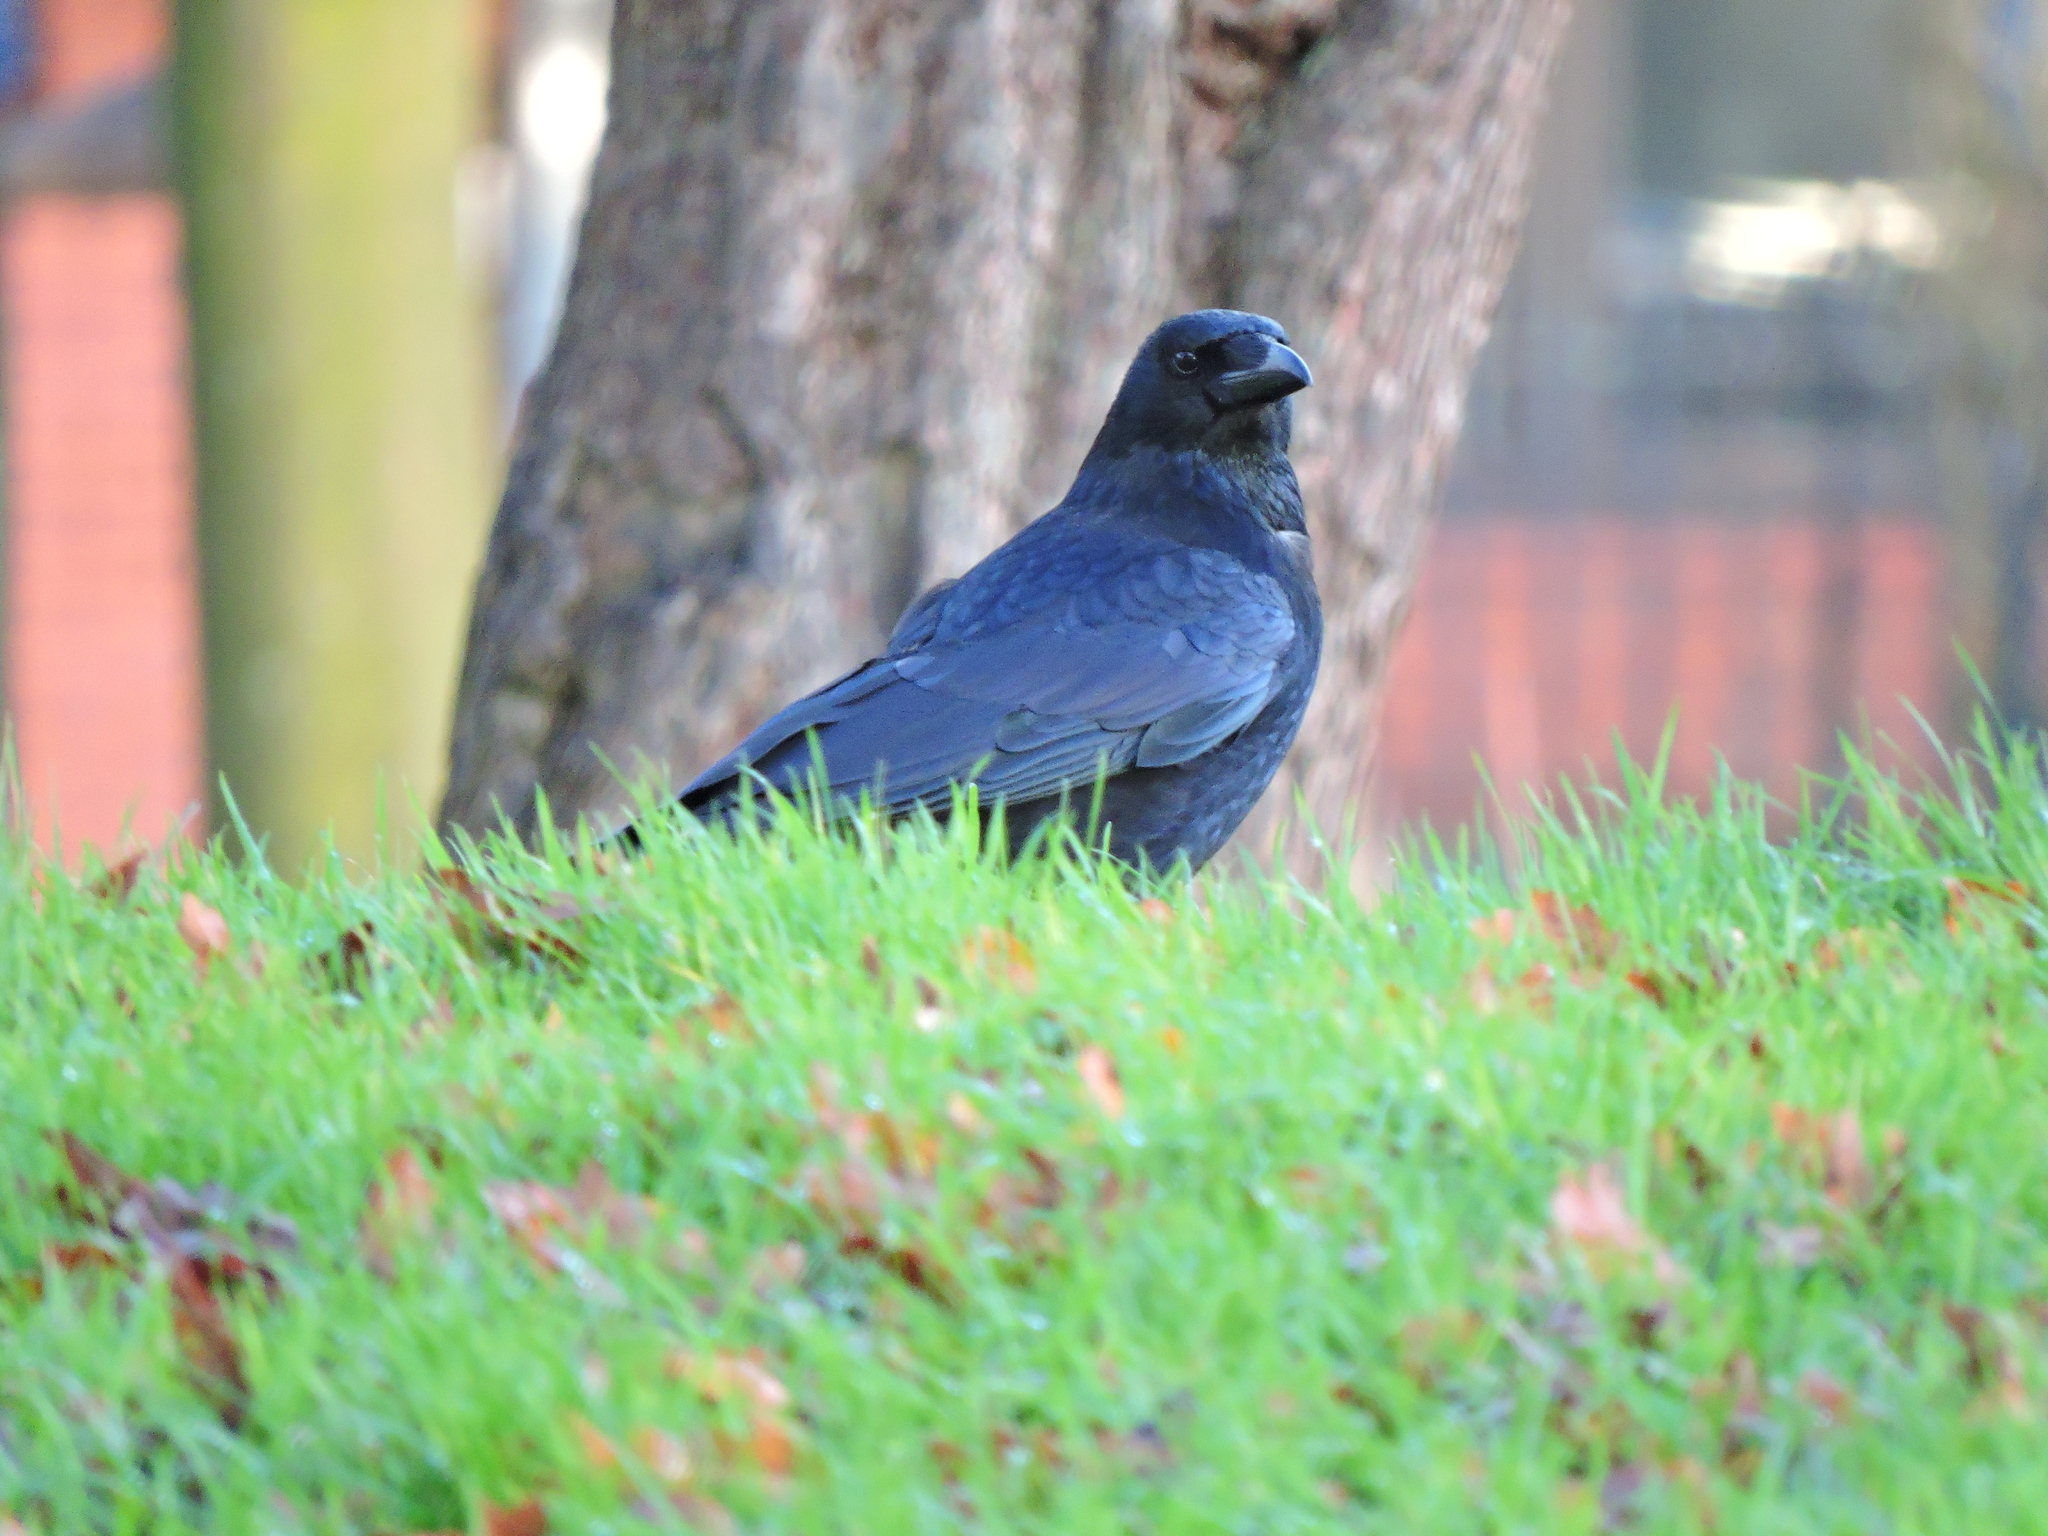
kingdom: Animalia
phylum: Chordata
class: Aves
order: Passeriformes
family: Corvidae
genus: Corvus
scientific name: Corvus corone
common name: Carrion crow
